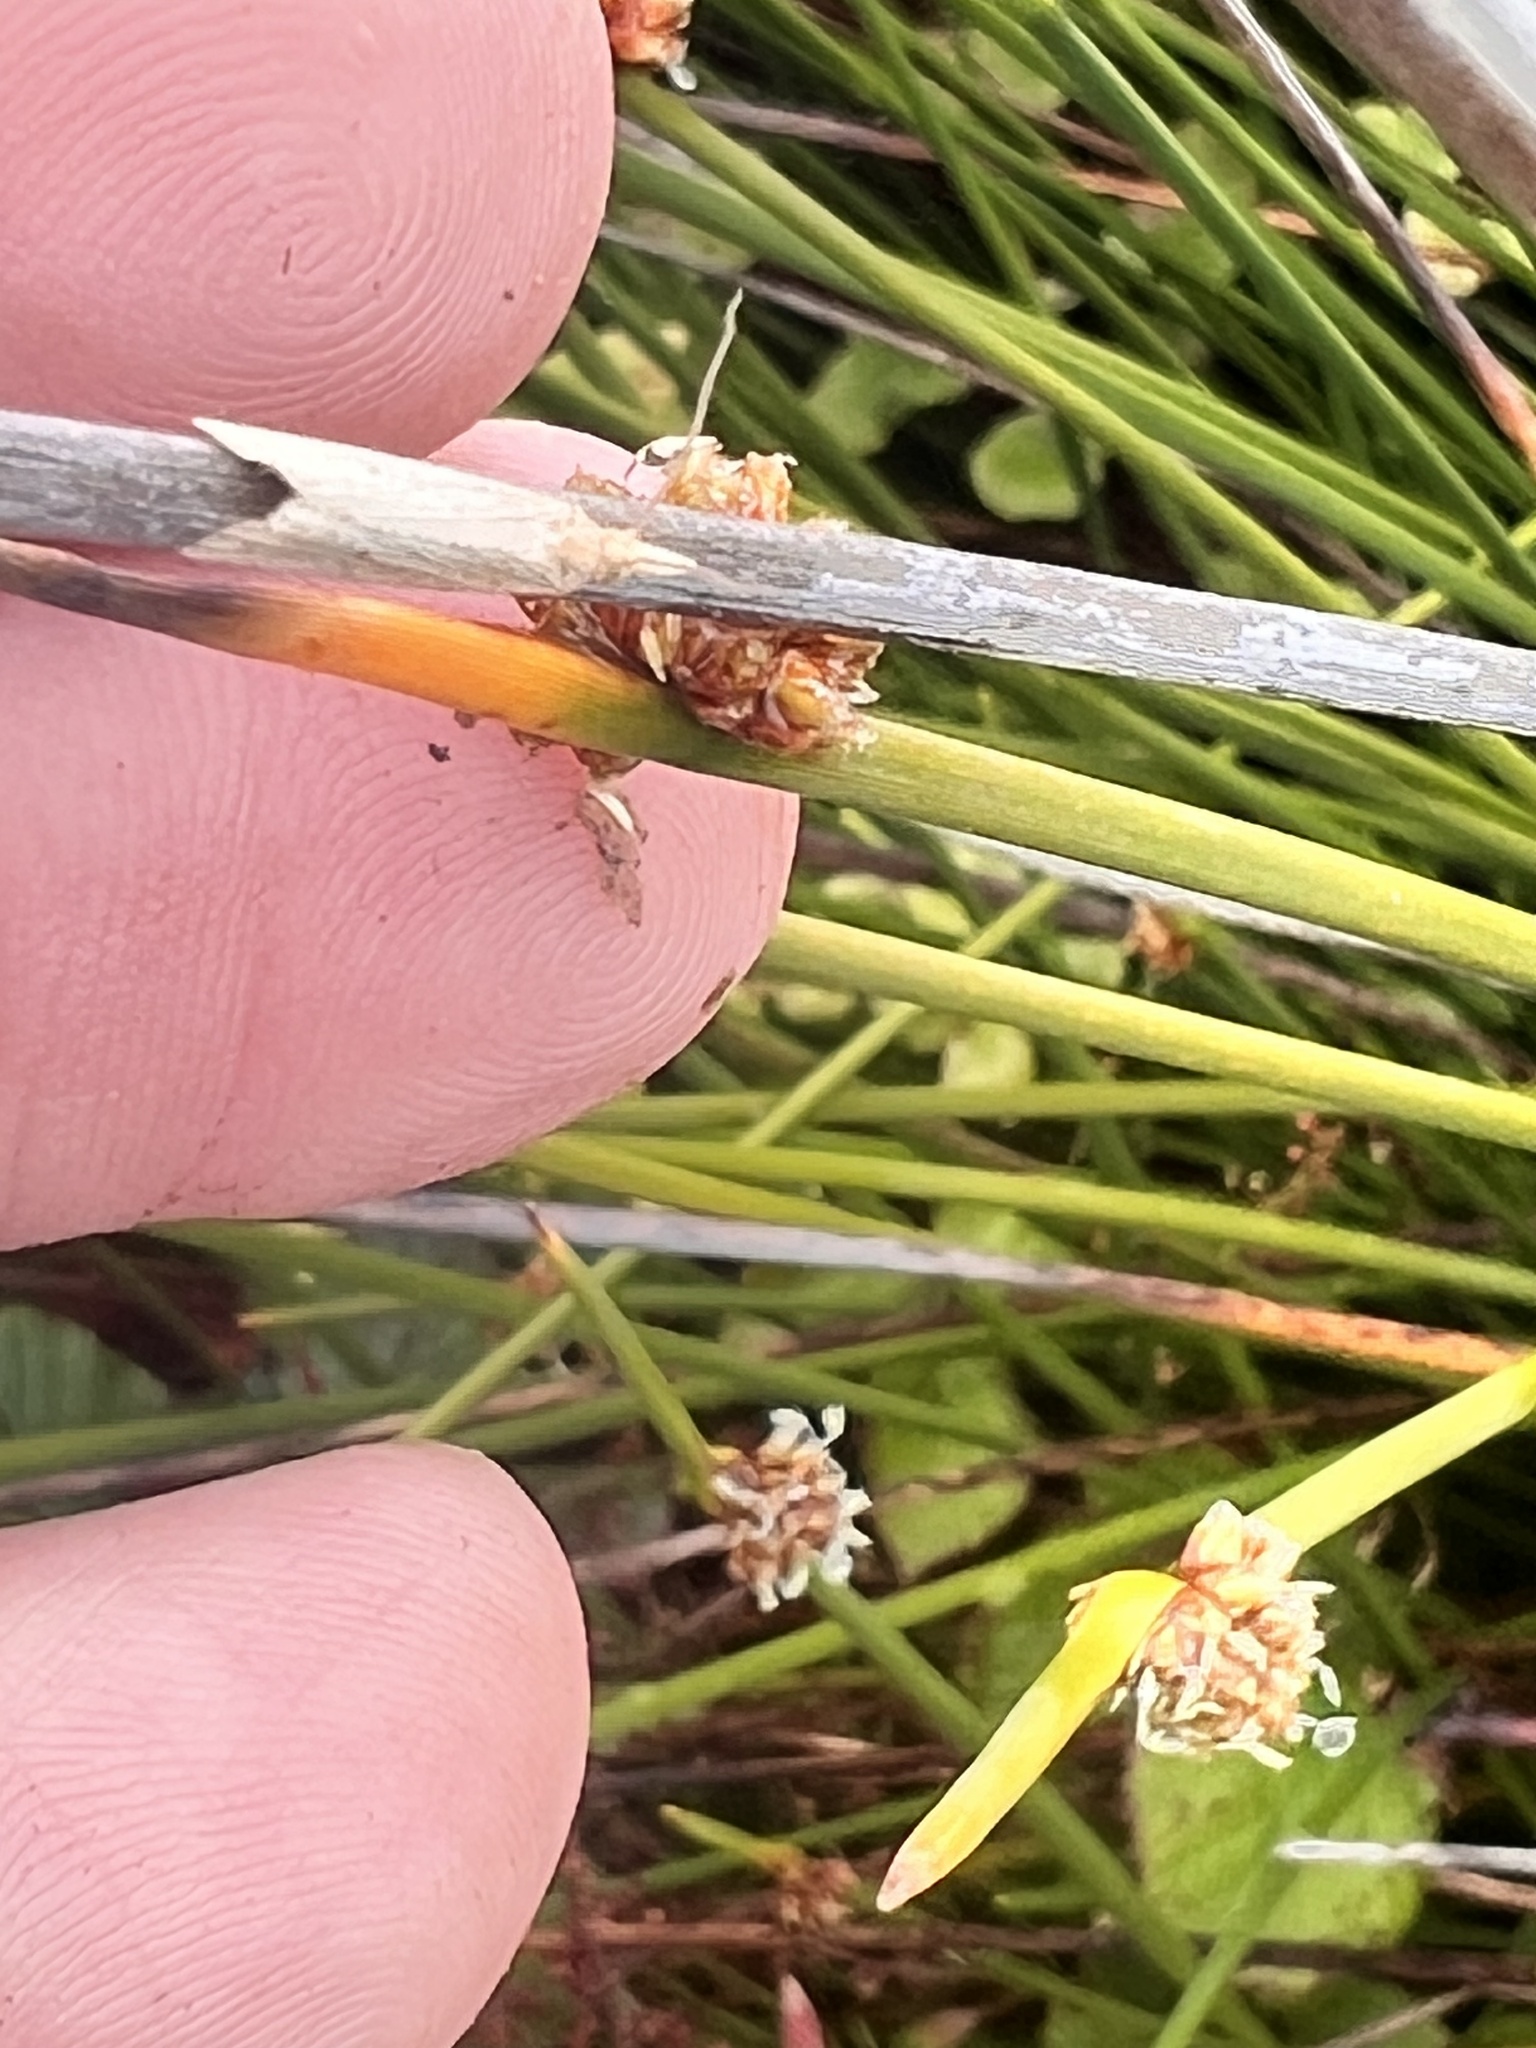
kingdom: Animalia
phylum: Arthropoda
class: Insecta
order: Lepidoptera
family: Tortricidae
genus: Bactra
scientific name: Bactra noteraula
